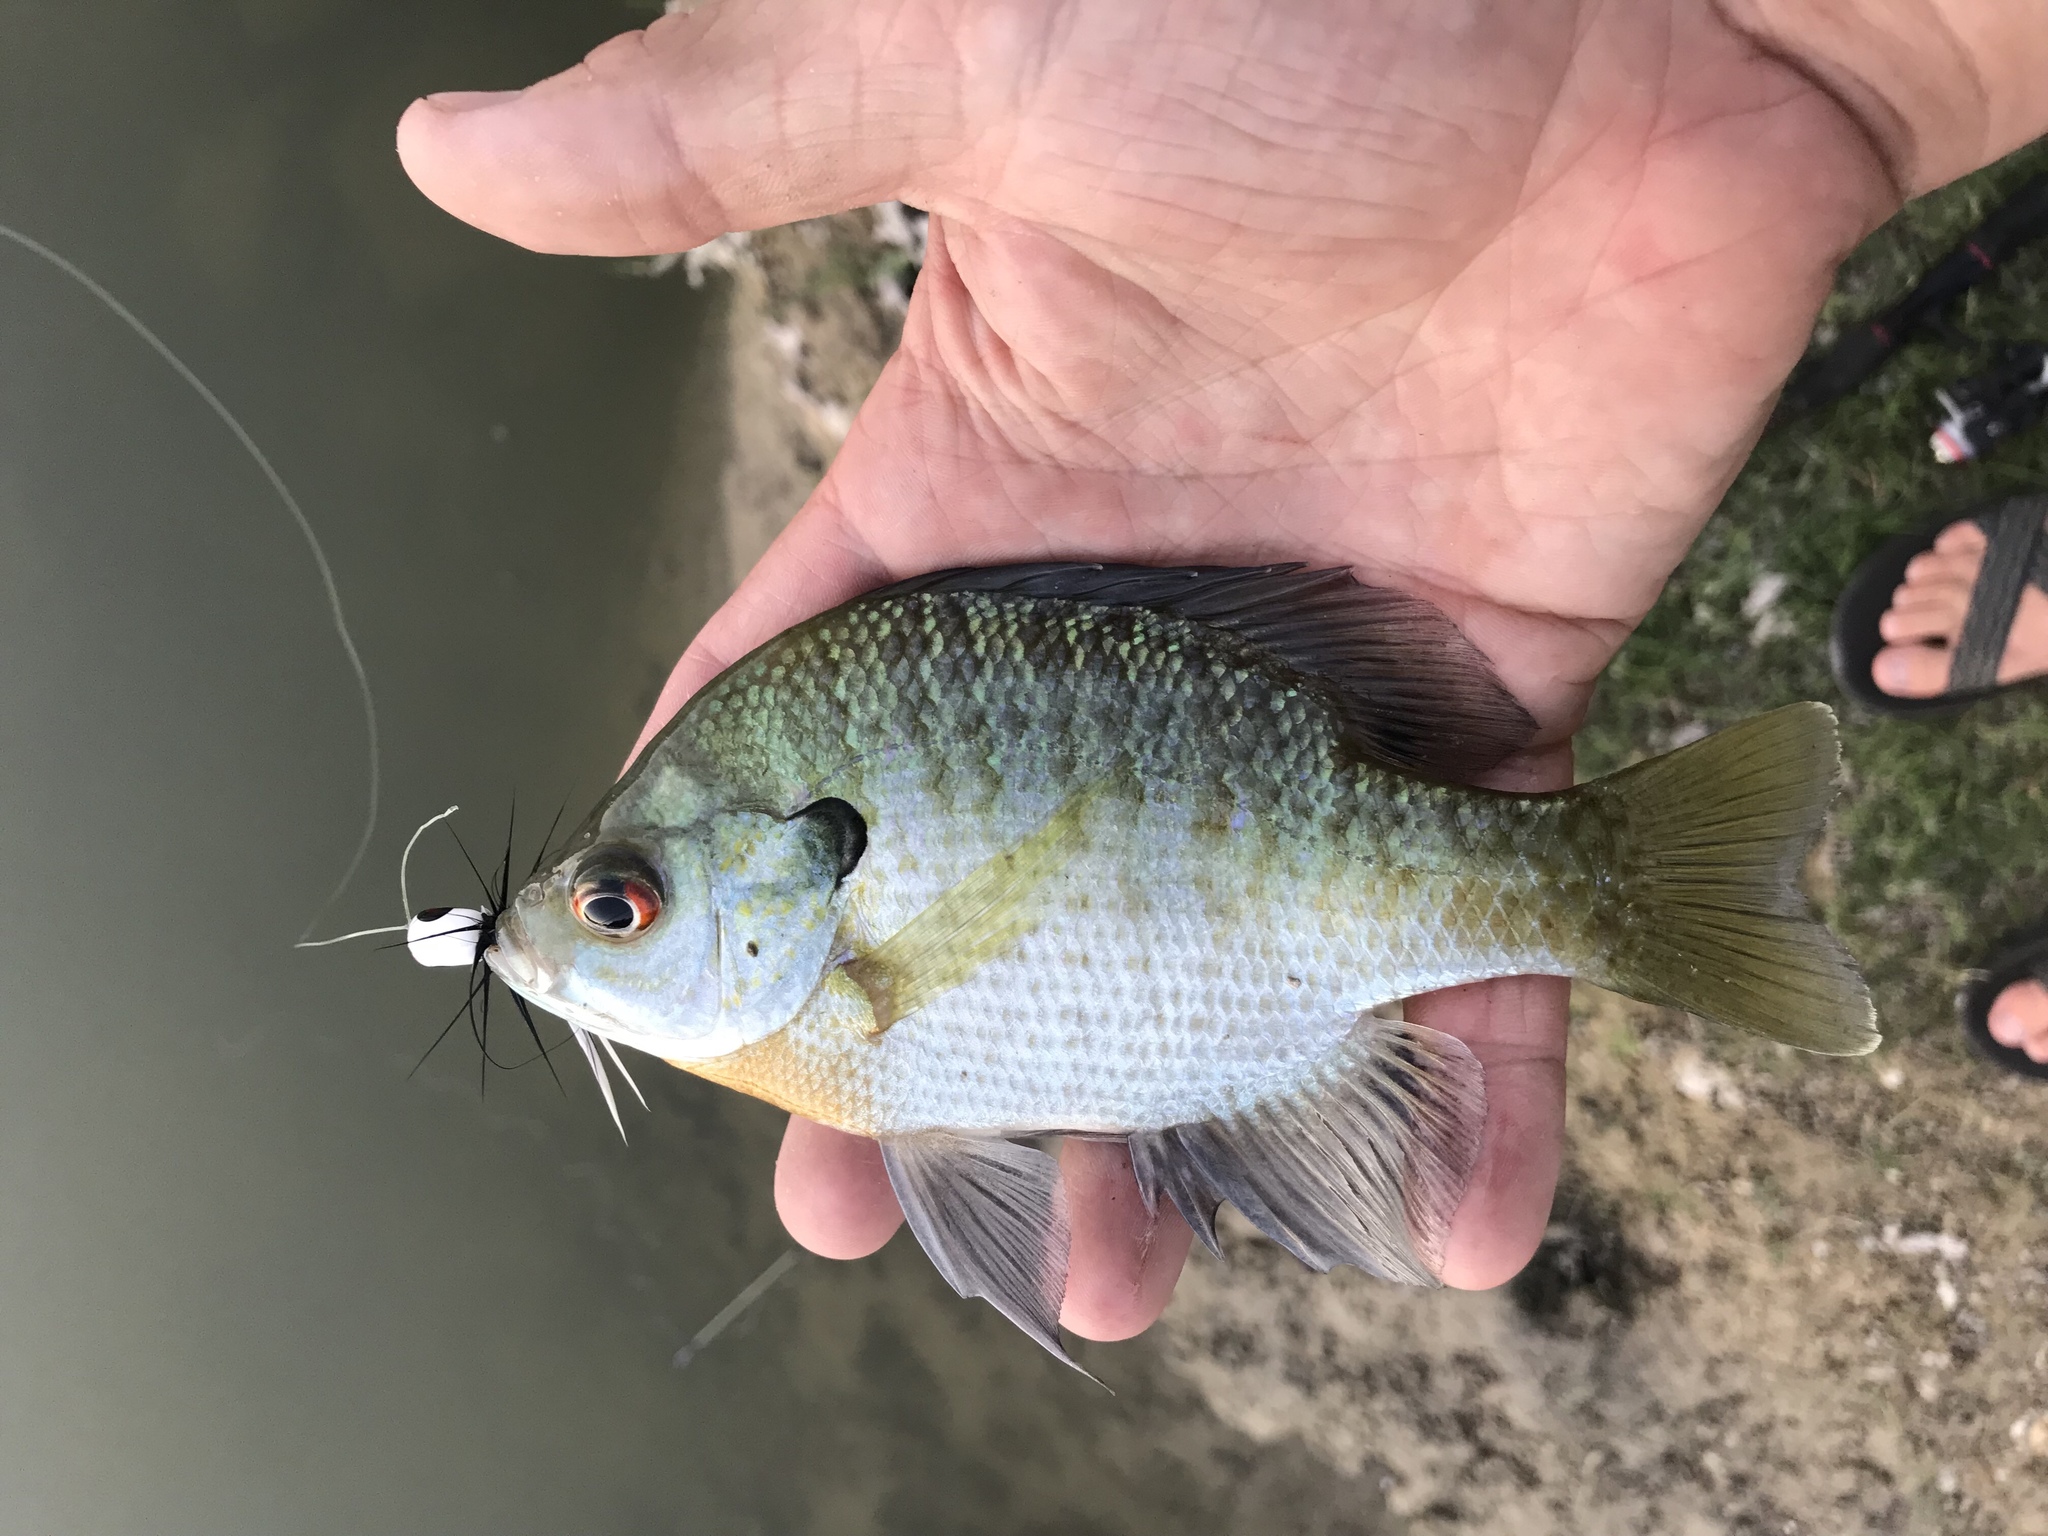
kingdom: Animalia
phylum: Chordata
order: Perciformes
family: Centrarchidae
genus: Lepomis
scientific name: Lepomis macrochirus
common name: Bluegill
